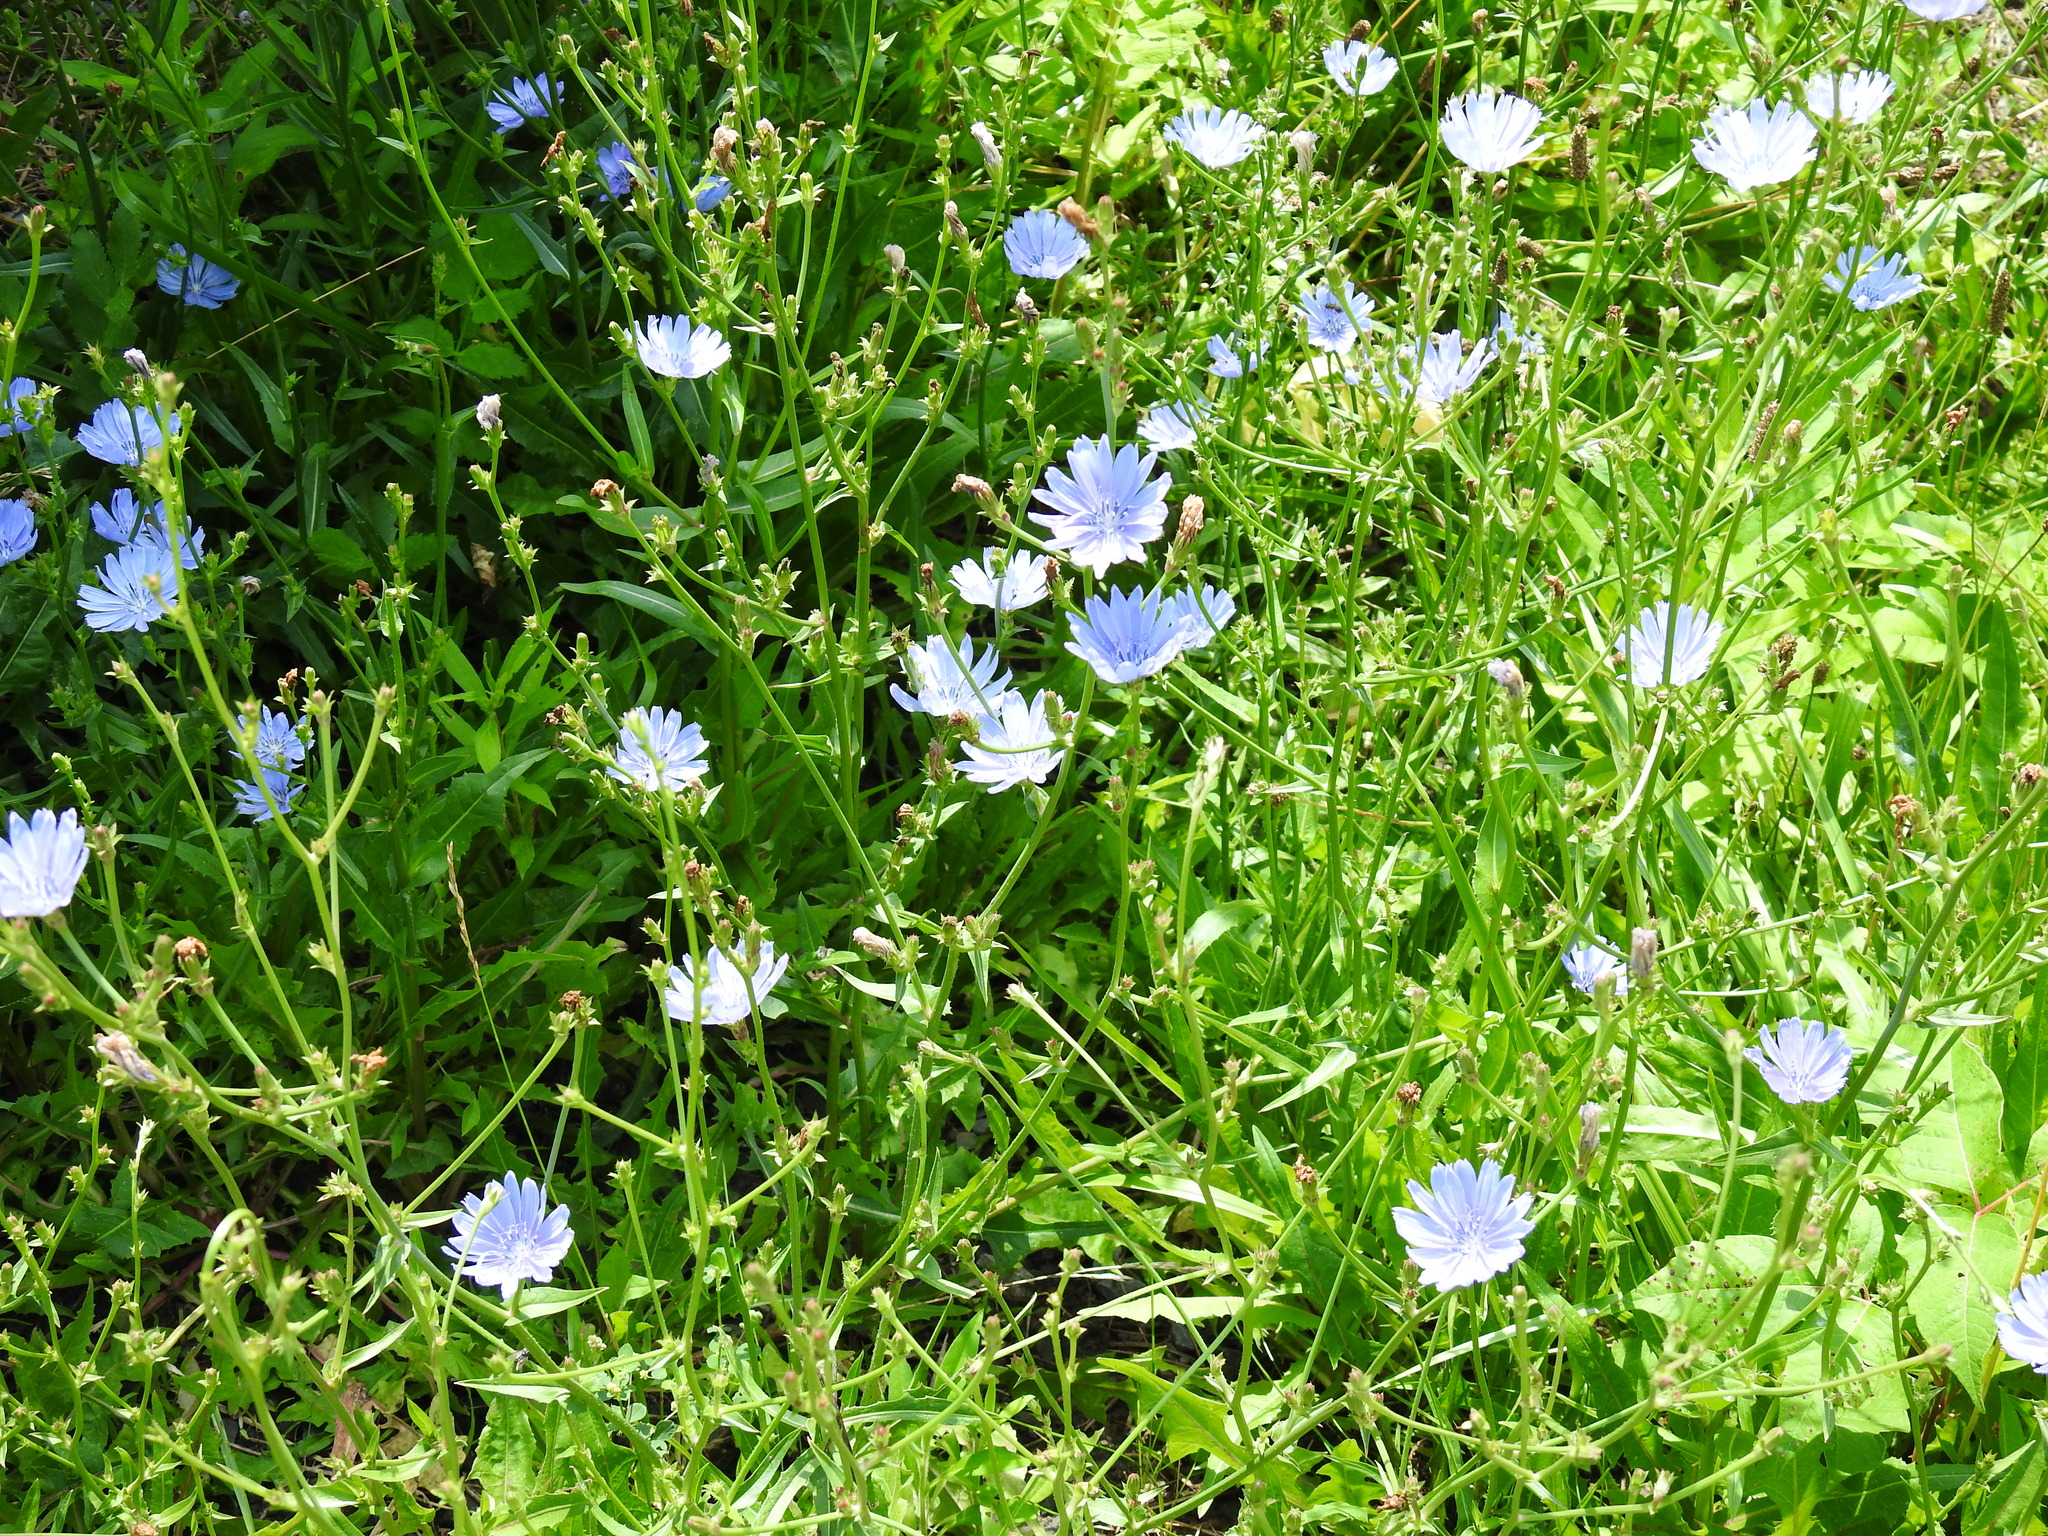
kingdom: Plantae
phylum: Tracheophyta
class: Magnoliopsida
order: Asterales
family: Asteraceae
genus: Cichorium
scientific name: Cichorium intybus
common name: Chicory
